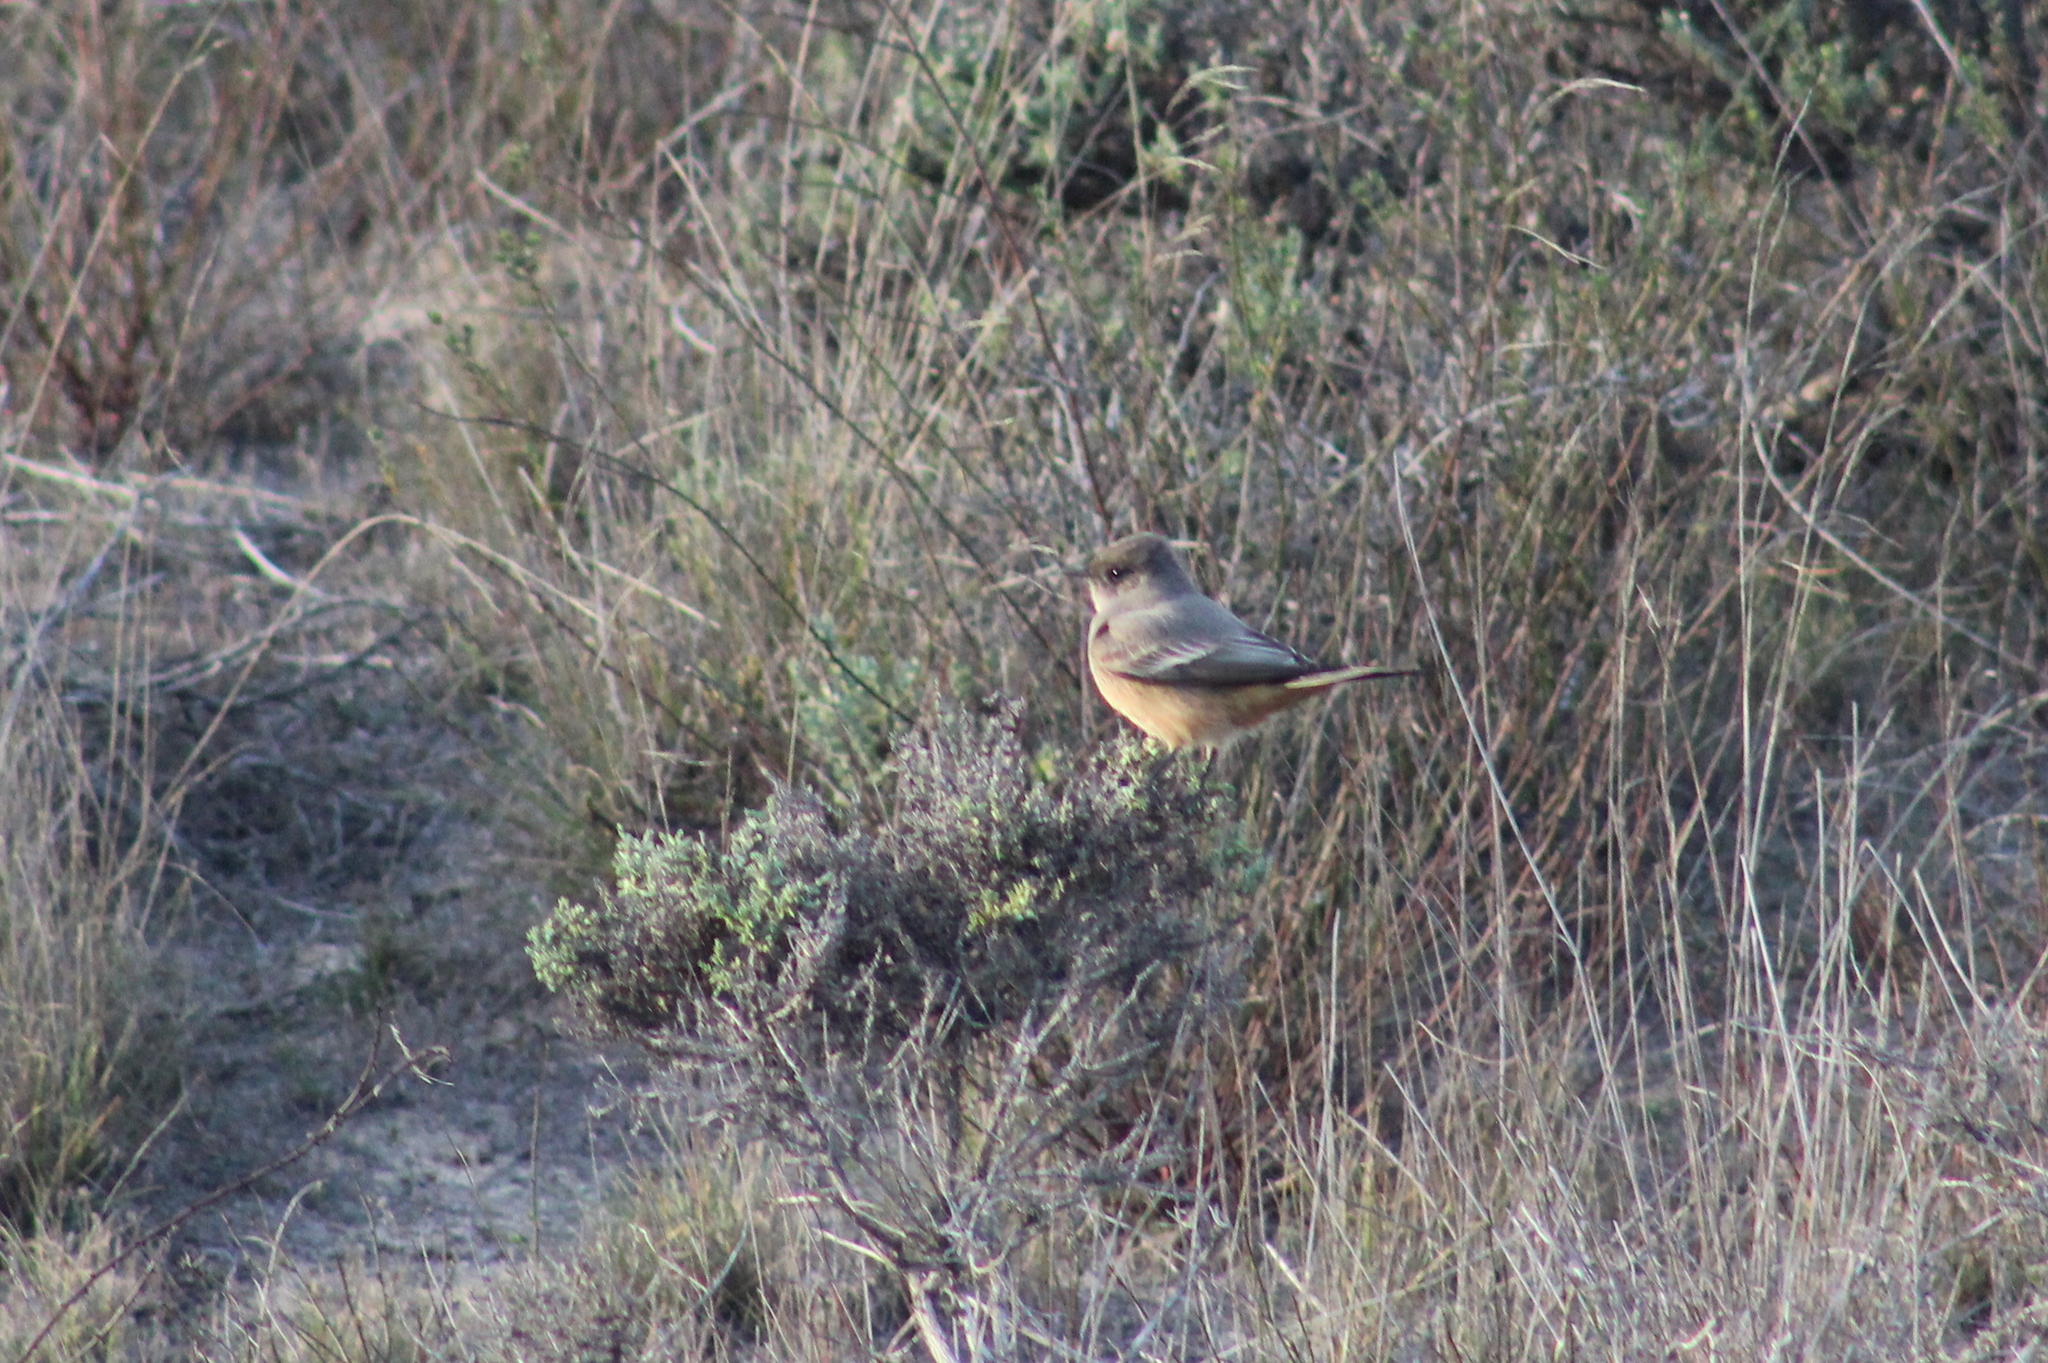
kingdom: Animalia
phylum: Chordata
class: Aves
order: Passeriformes
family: Tyrannidae
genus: Sayornis
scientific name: Sayornis saya
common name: Say's phoebe
